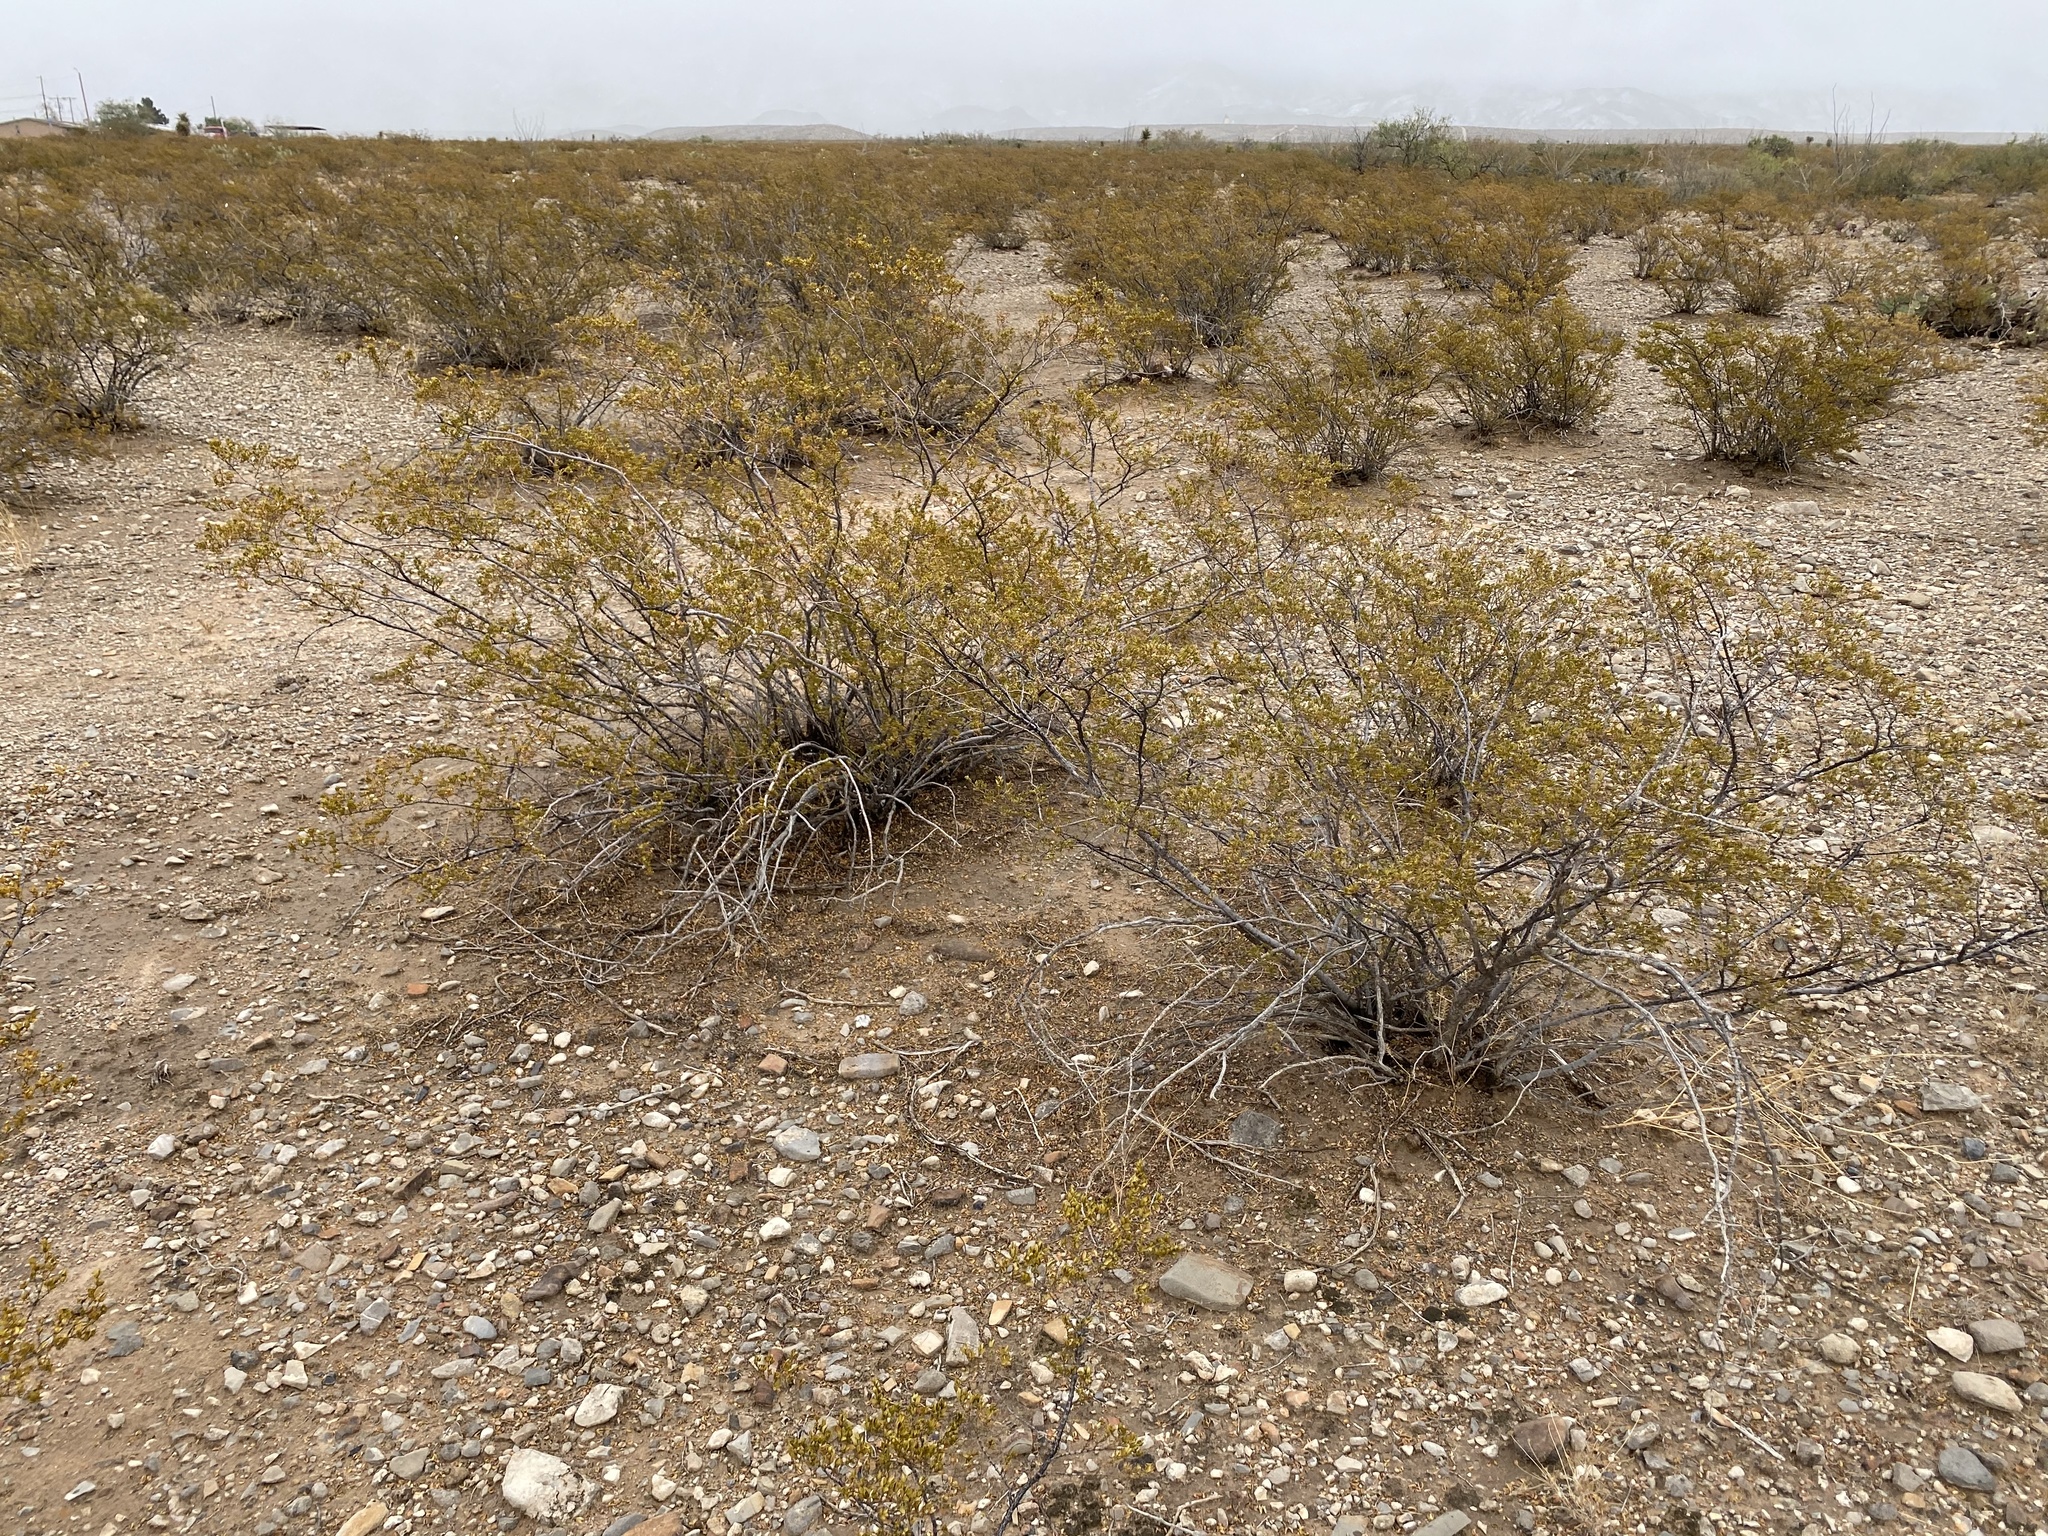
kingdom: Plantae
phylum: Tracheophyta
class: Magnoliopsida
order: Zygophyllales
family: Zygophyllaceae
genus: Larrea
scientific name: Larrea tridentata
